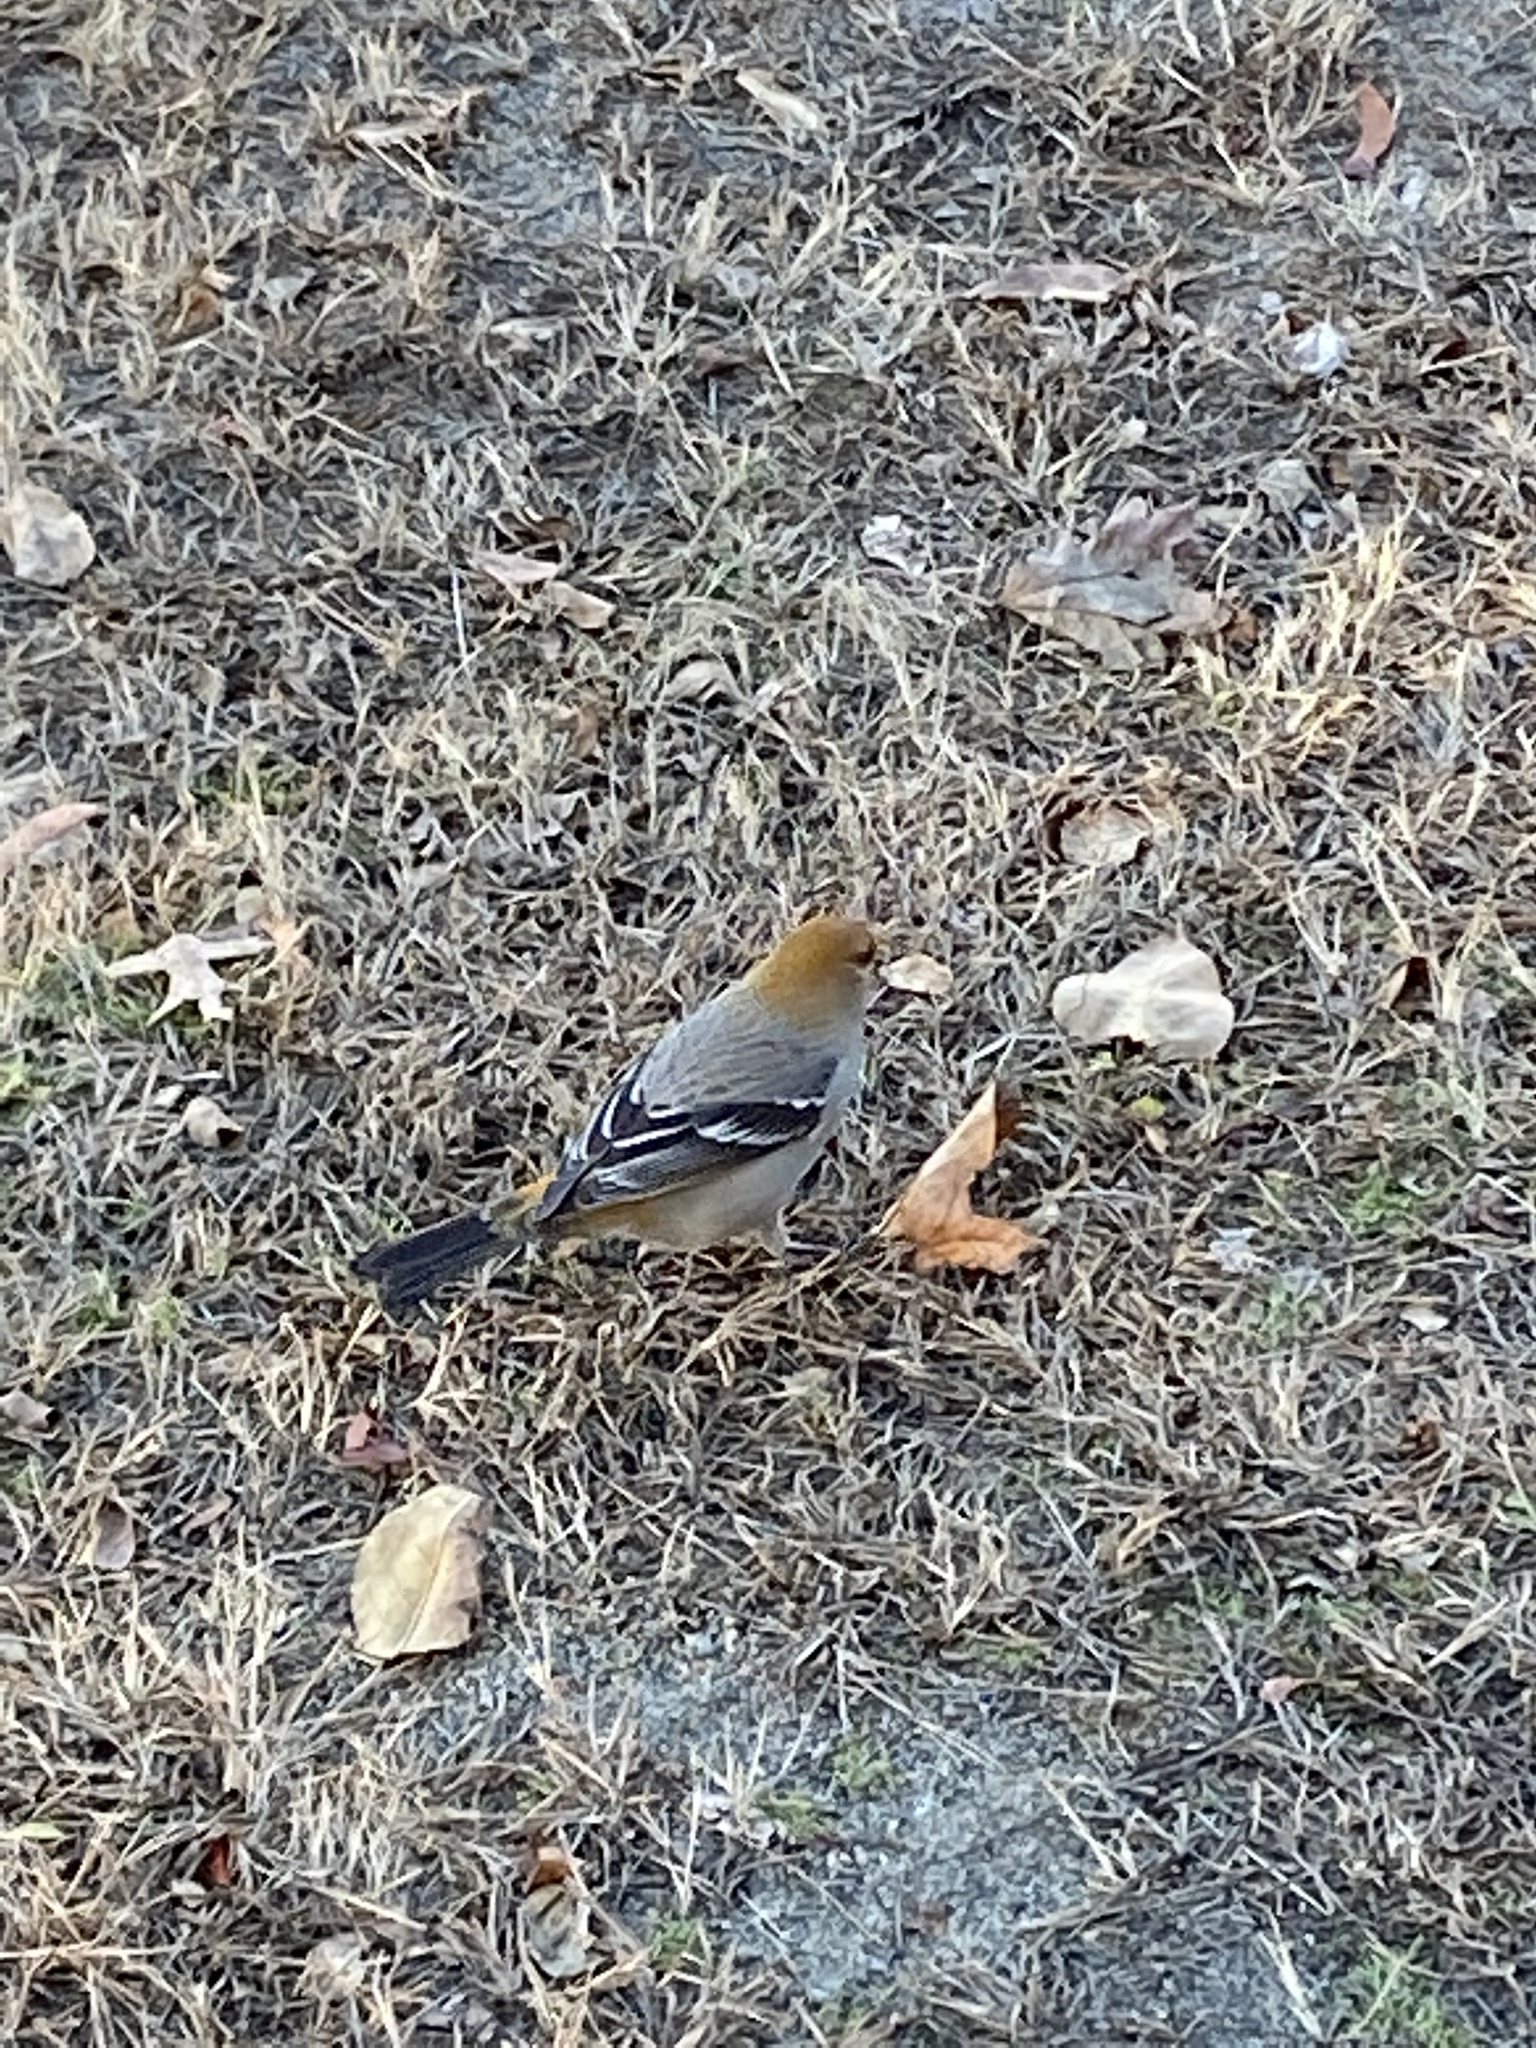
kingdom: Animalia
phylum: Chordata
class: Aves
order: Passeriformes
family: Fringillidae
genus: Pinicola
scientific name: Pinicola enucleator
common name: Pine grosbeak
